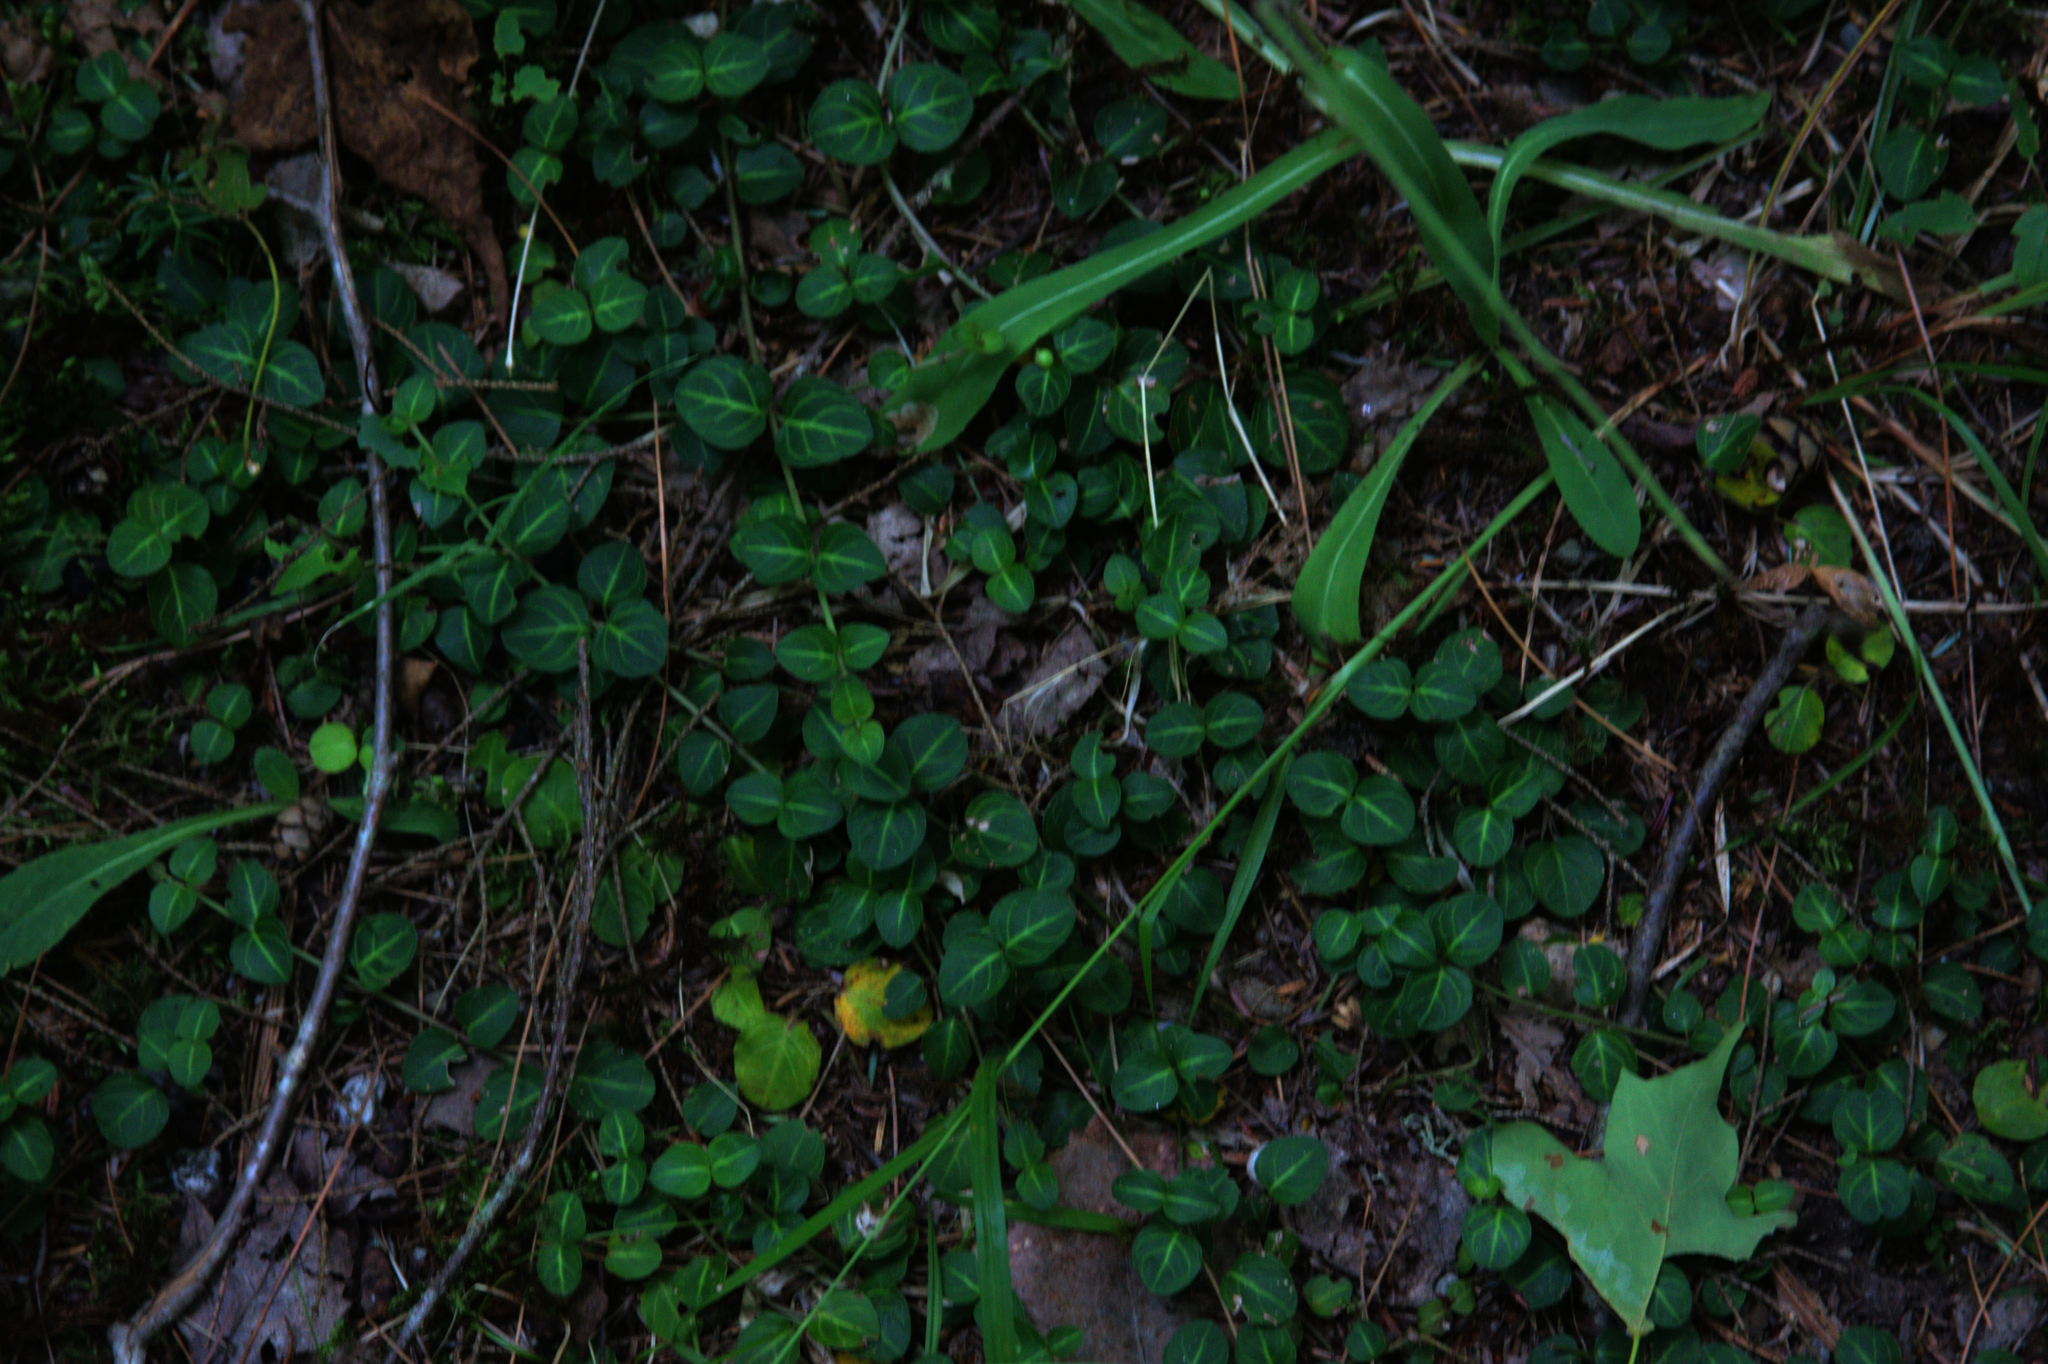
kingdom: Plantae
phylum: Tracheophyta
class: Magnoliopsida
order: Gentianales
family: Rubiaceae
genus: Mitchella
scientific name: Mitchella repens
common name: Partridge-berry
